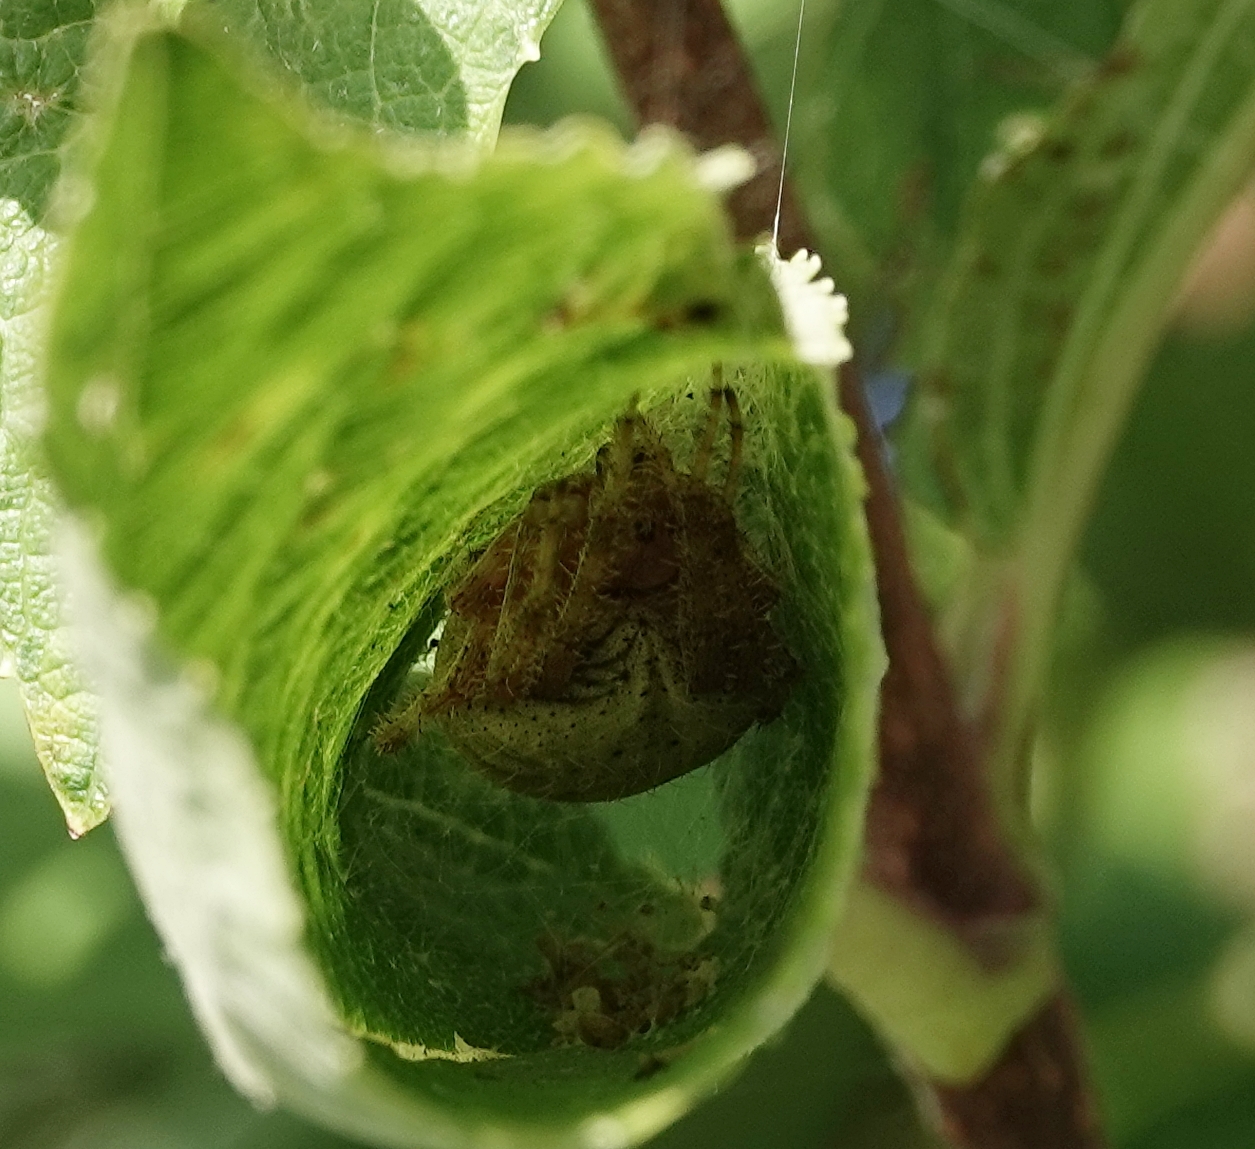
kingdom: Animalia
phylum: Arthropoda
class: Arachnida
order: Araneae
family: Araneidae
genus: Neoscona
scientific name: Neoscona crucifera
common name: Spotted orbweaver
